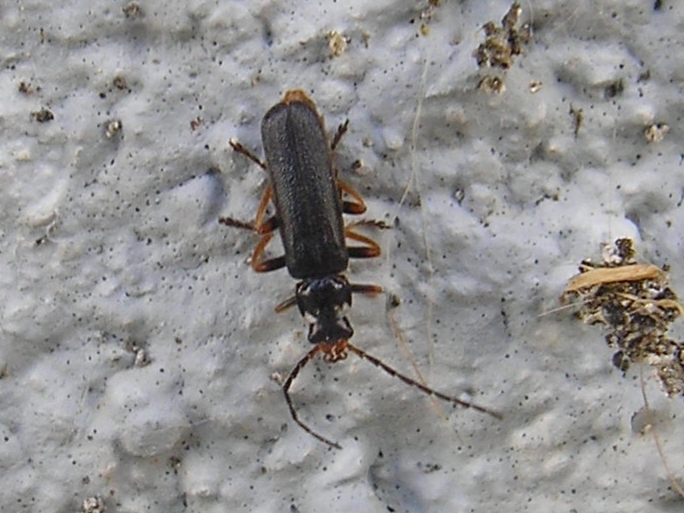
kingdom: Animalia
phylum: Arthropoda
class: Insecta
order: Coleoptera
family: Cantharidae
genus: Cantharis
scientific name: Cantharis flavilabris
